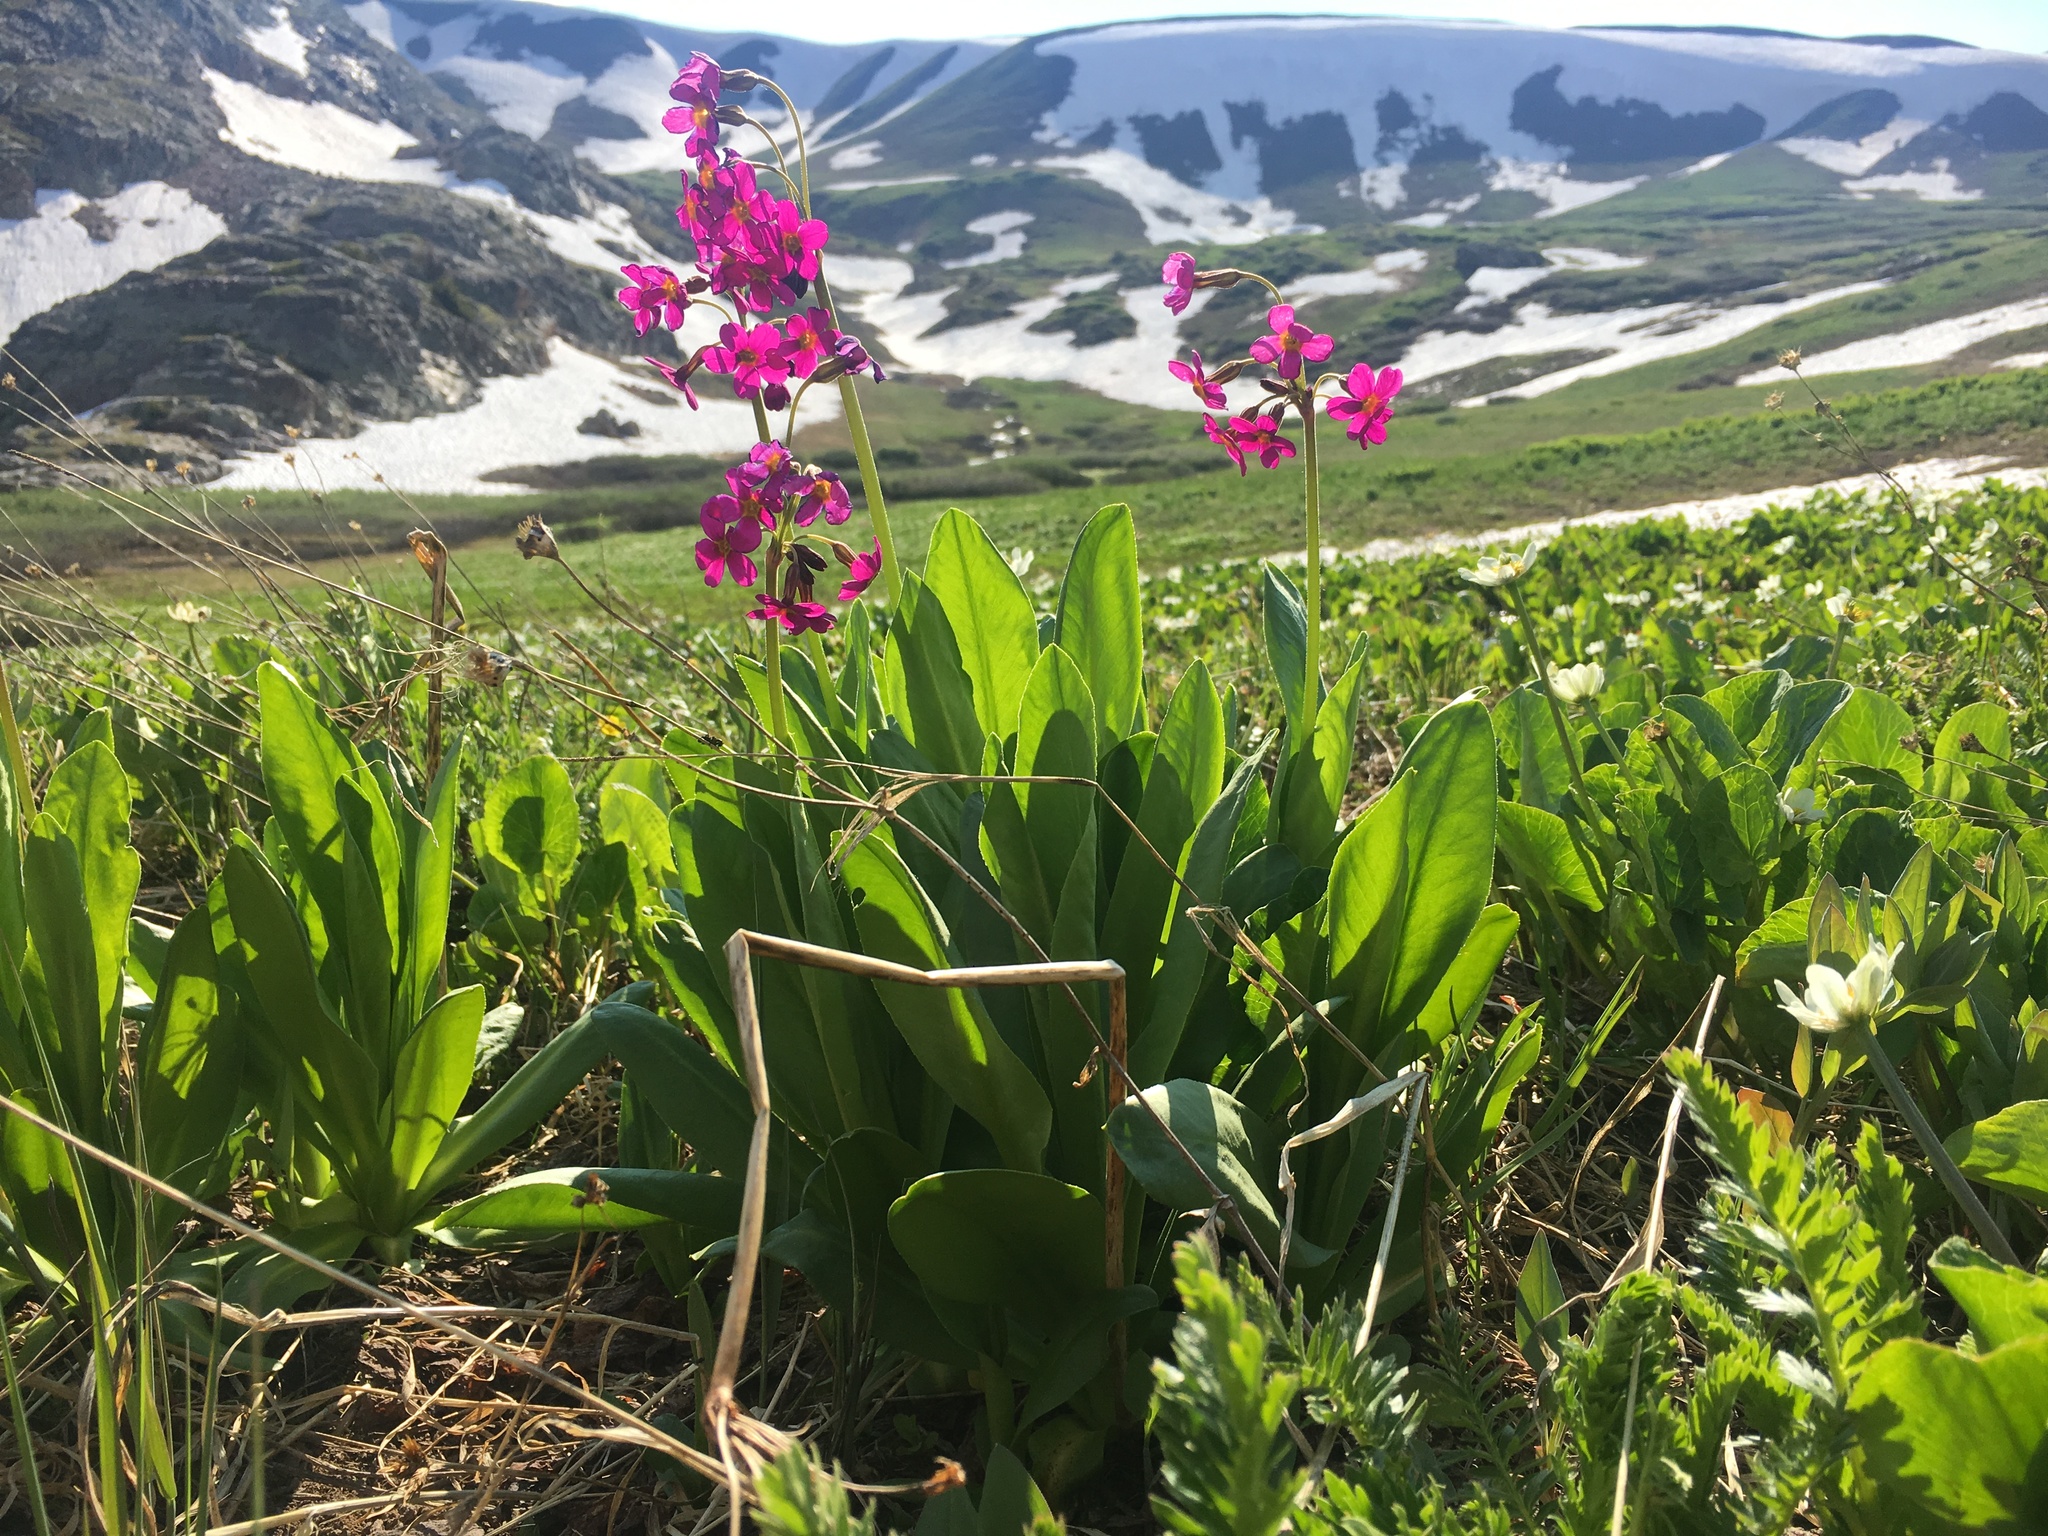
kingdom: Plantae
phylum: Tracheophyta
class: Magnoliopsida
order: Ericales
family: Primulaceae
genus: Primula
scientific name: Primula parryi
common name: Parry's primrose
